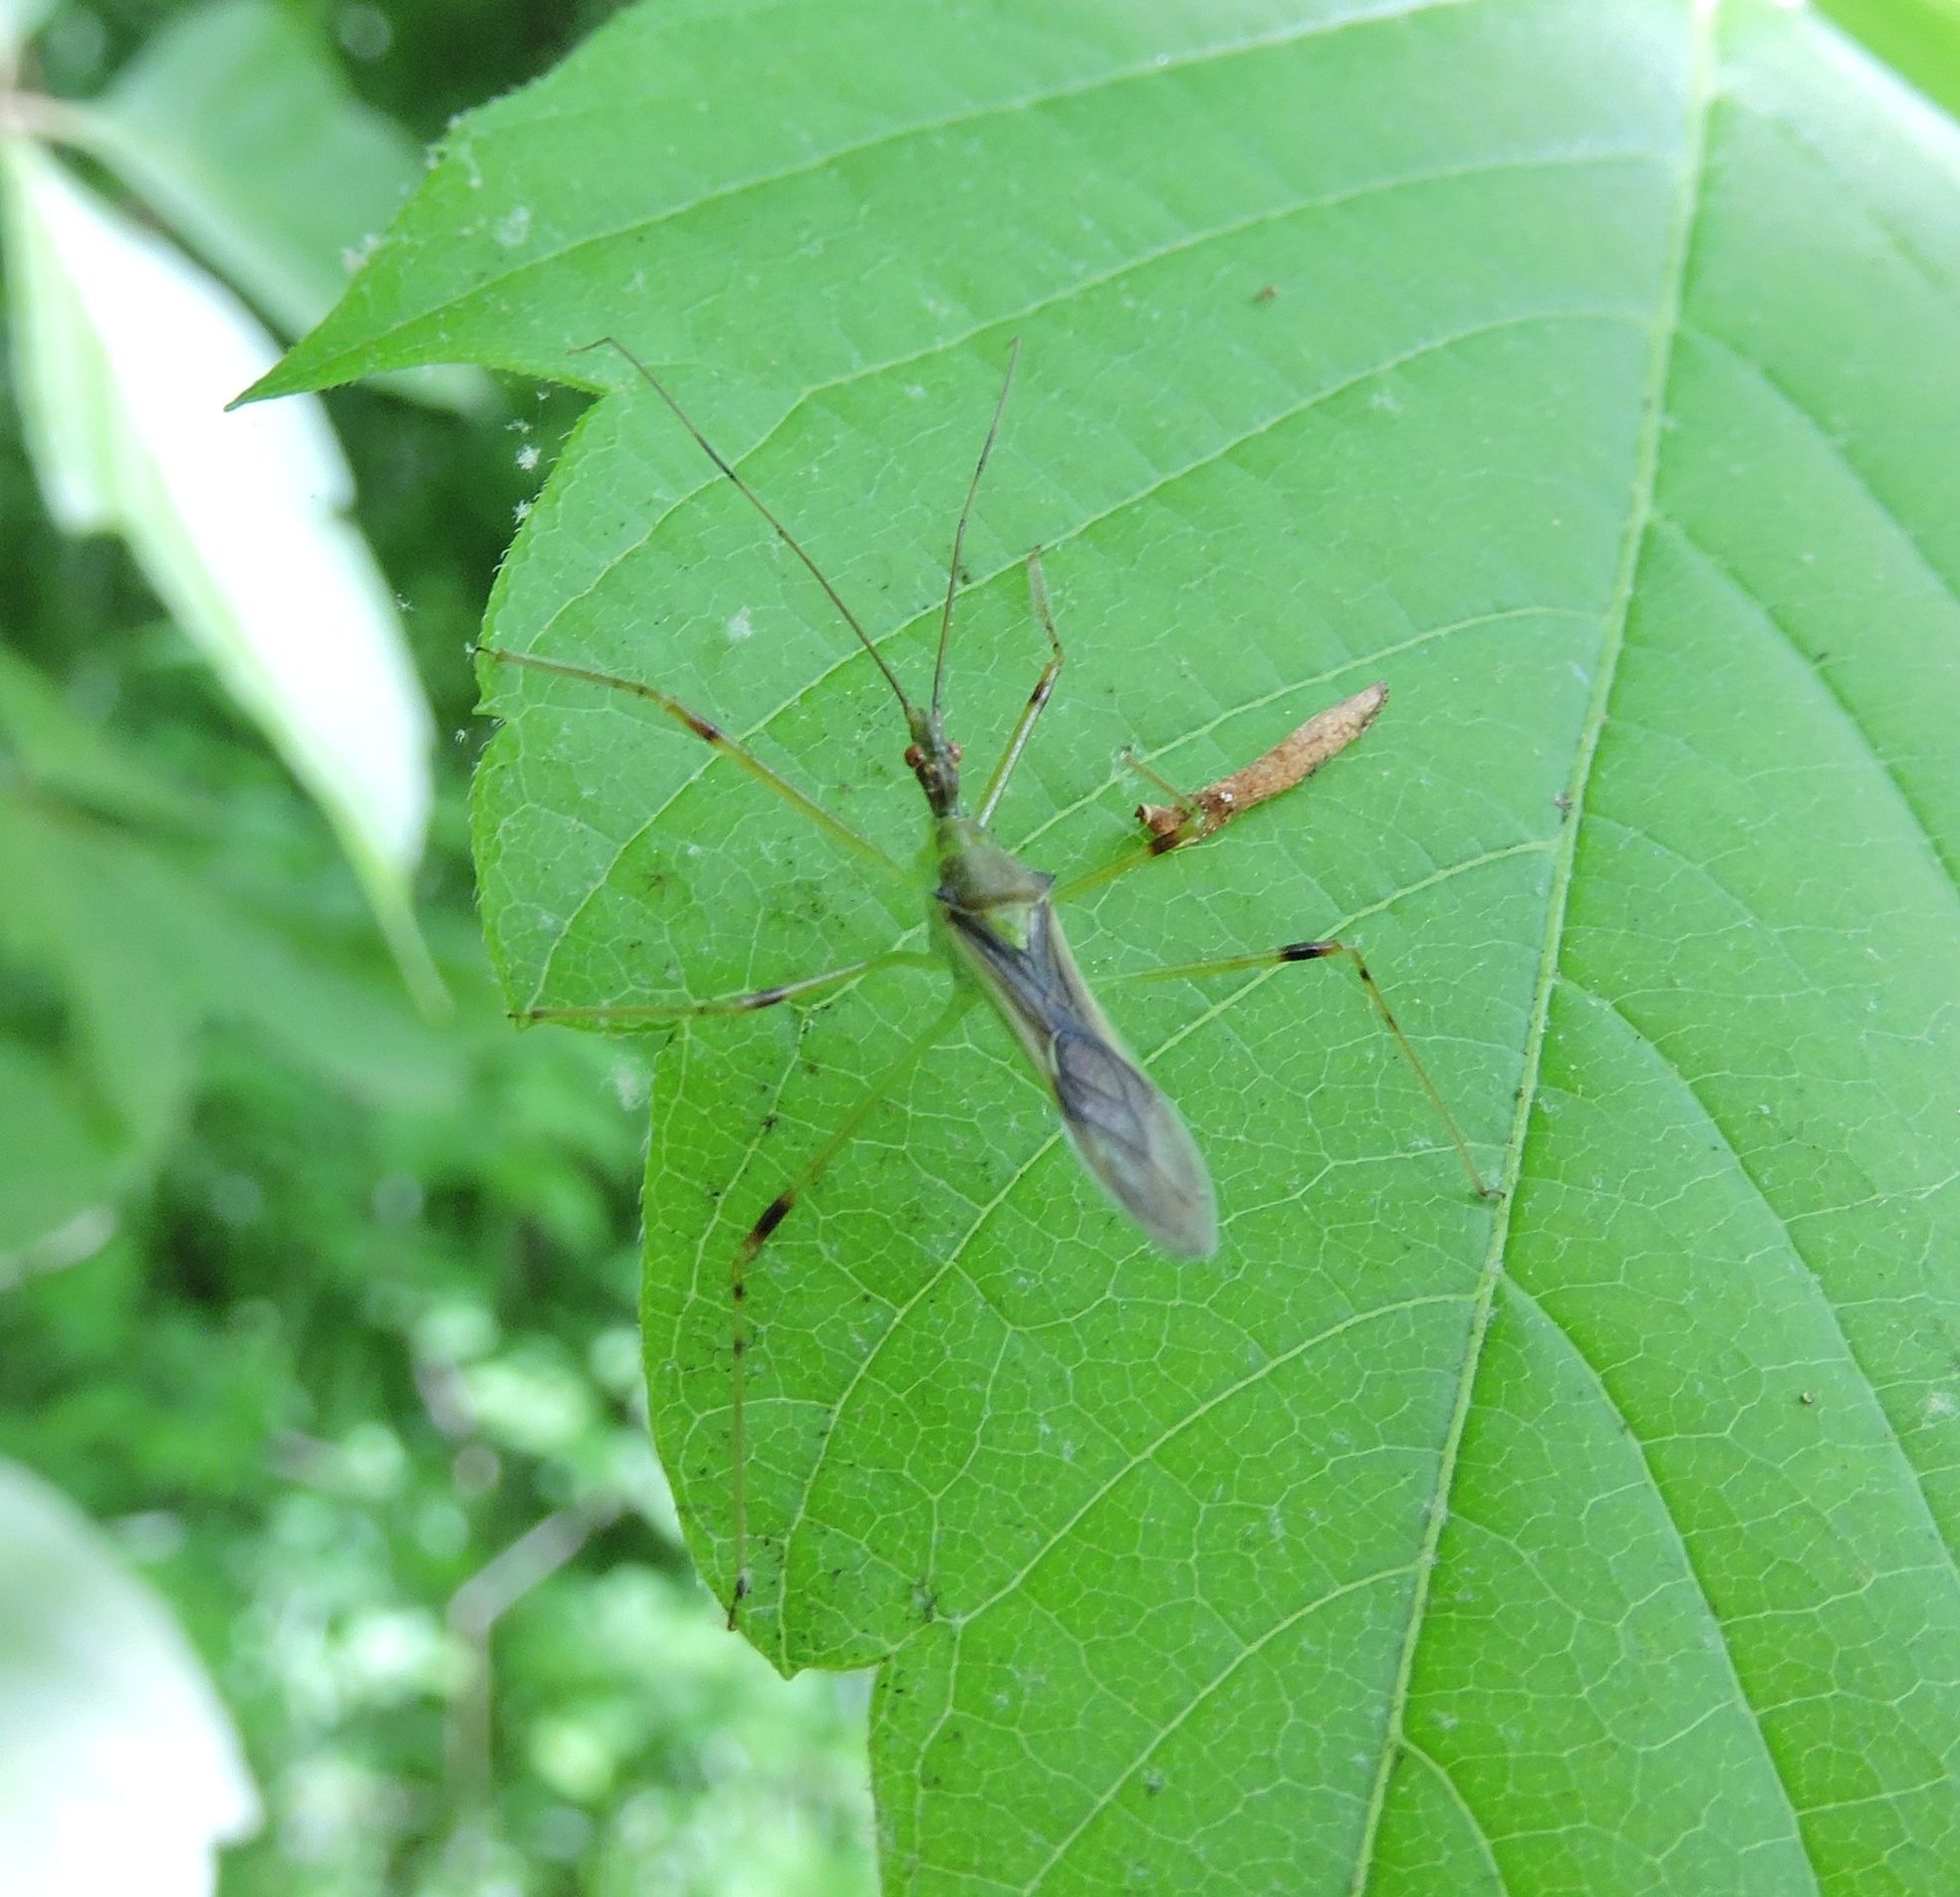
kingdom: Animalia
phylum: Arthropoda
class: Insecta
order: Hemiptera
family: Reduviidae
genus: Zelus
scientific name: Zelus luridus
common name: Pale green assassin bug
